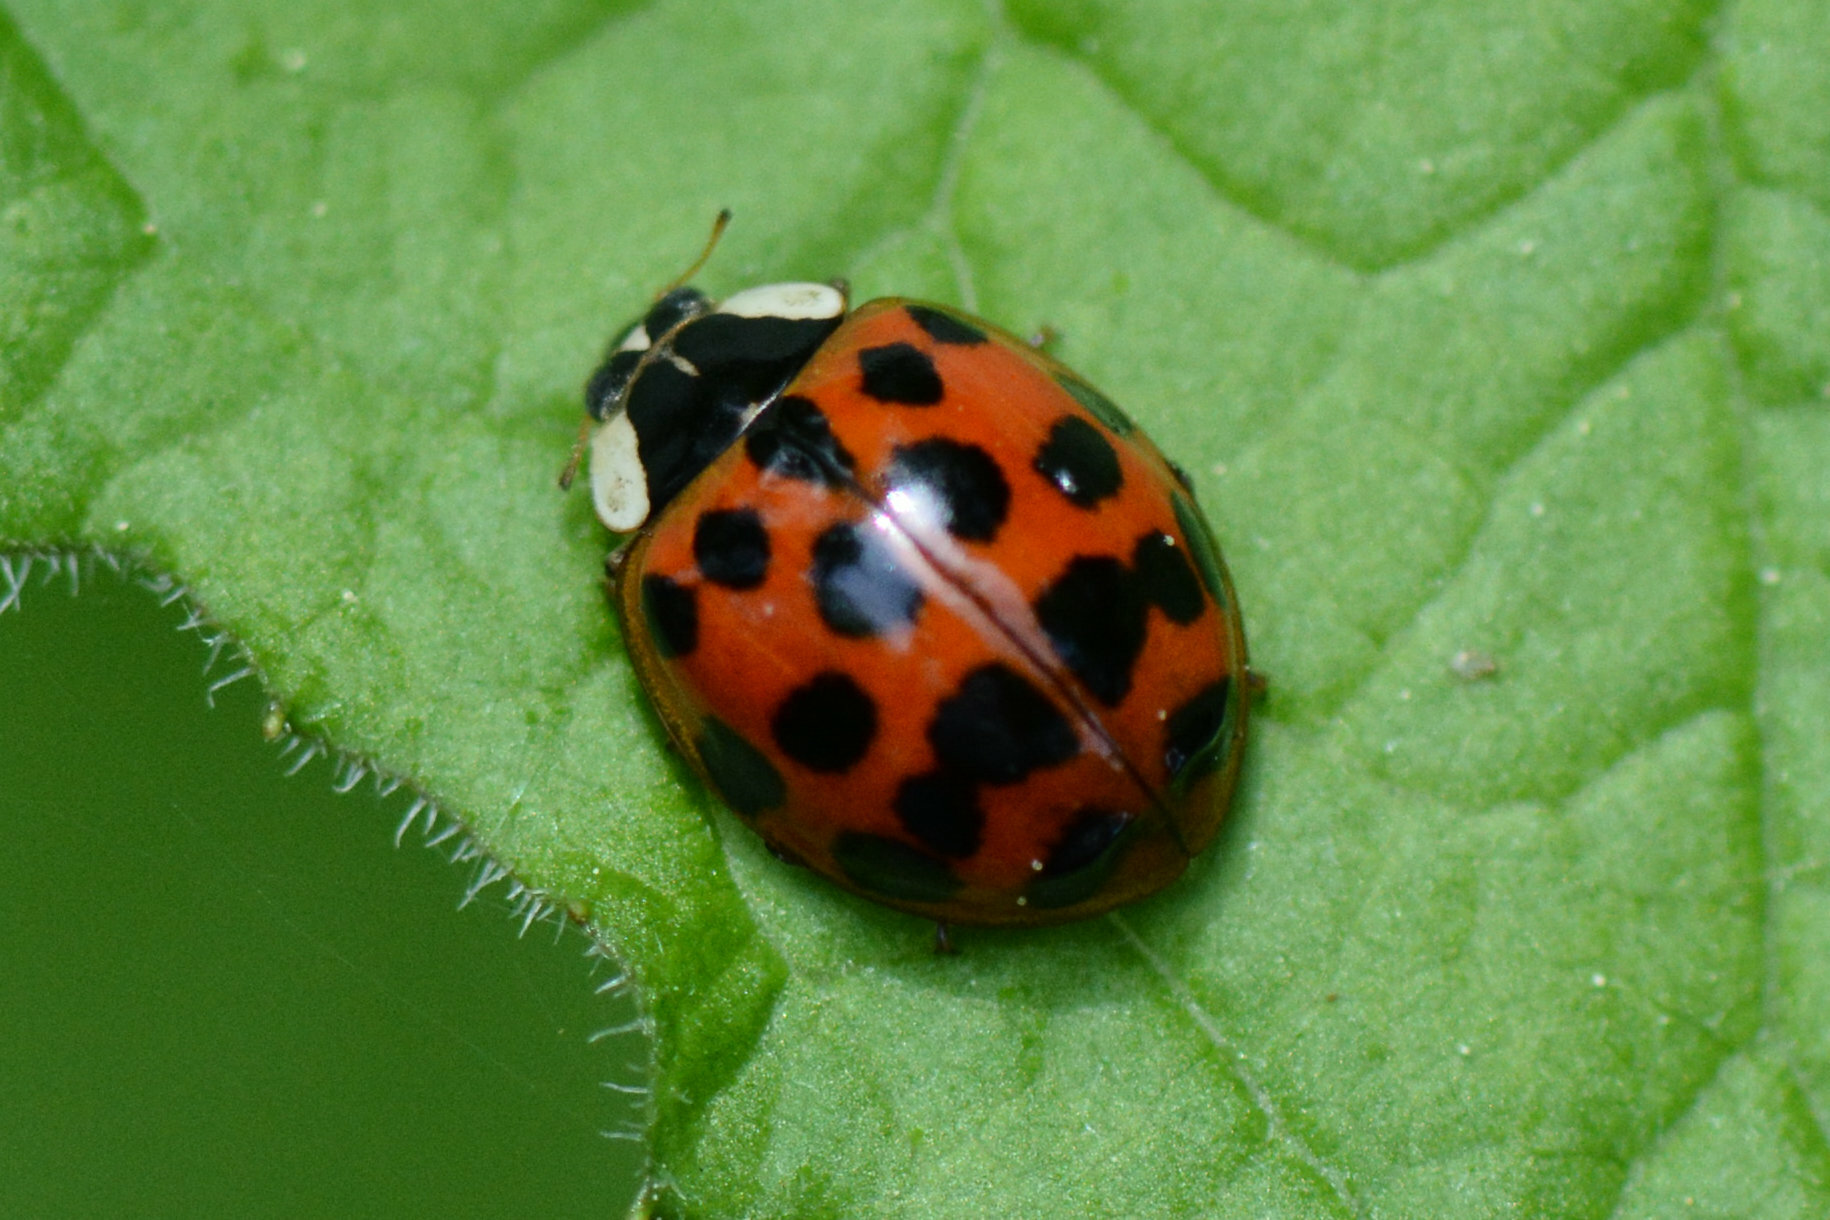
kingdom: Animalia
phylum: Arthropoda
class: Insecta
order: Coleoptera
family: Coccinellidae
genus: Harmonia
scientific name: Harmonia axyridis
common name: Harlequin ladybird
